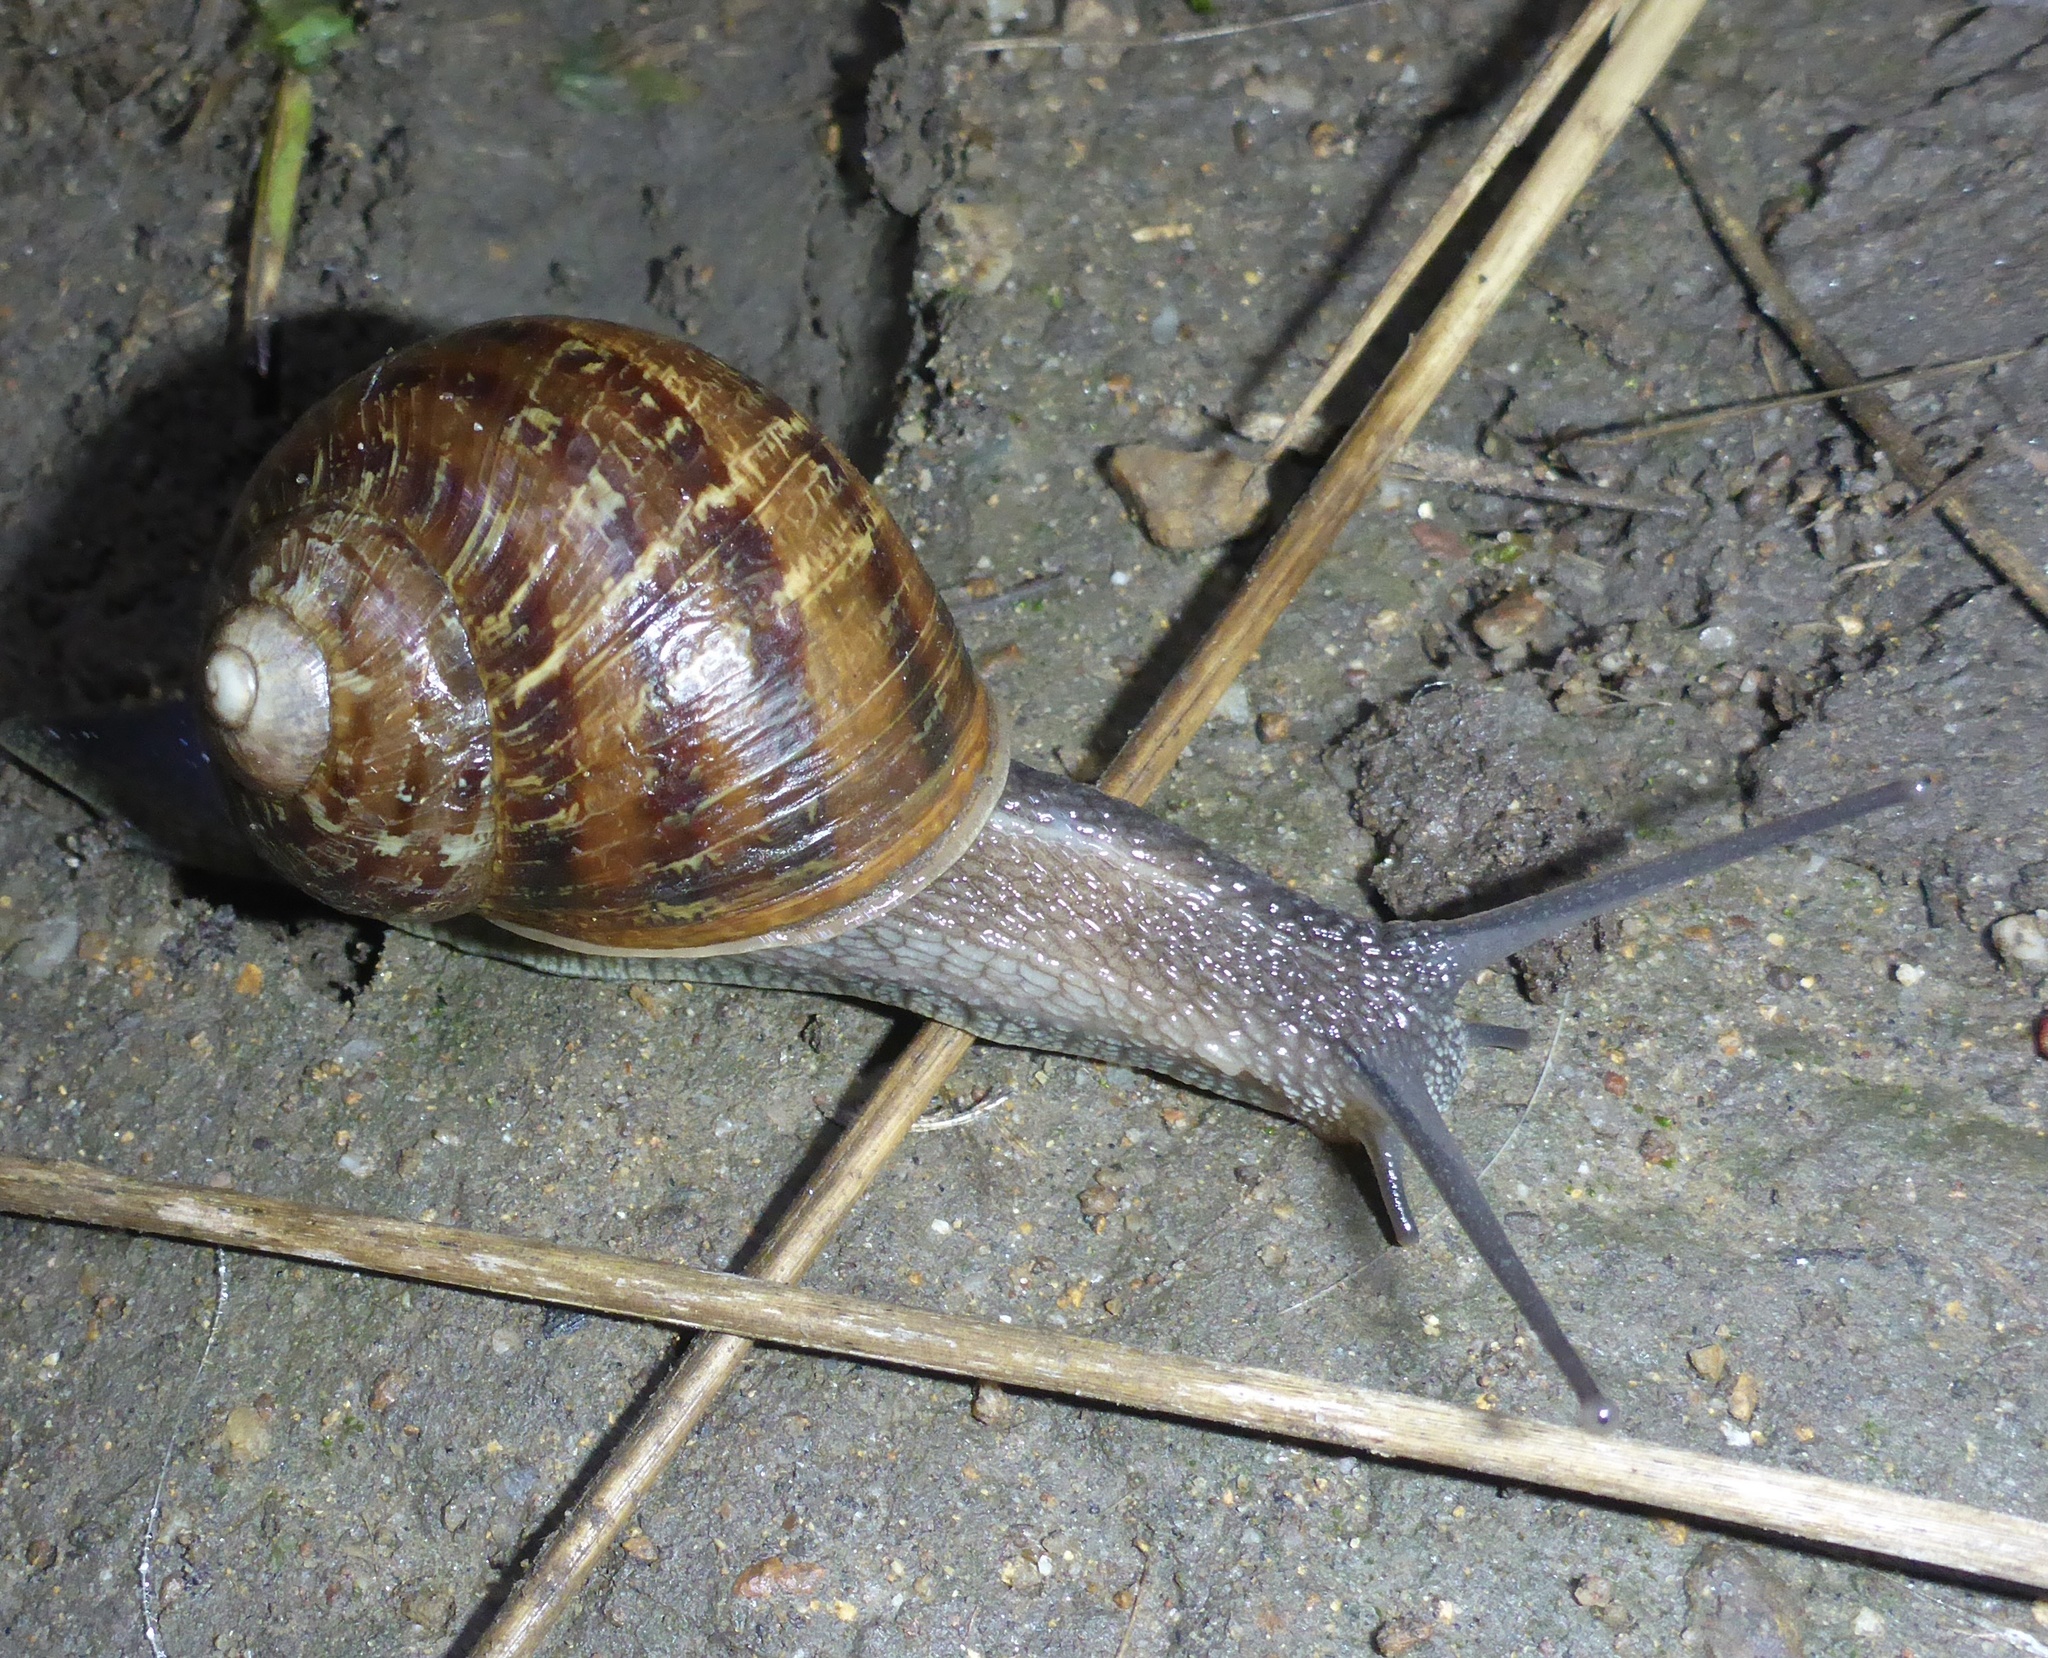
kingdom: Animalia
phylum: Mollusca
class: Gastropoda
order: Stylommatophora
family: Helicidae
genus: Cornu
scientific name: Cornu aspersum
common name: Brown garden snail
